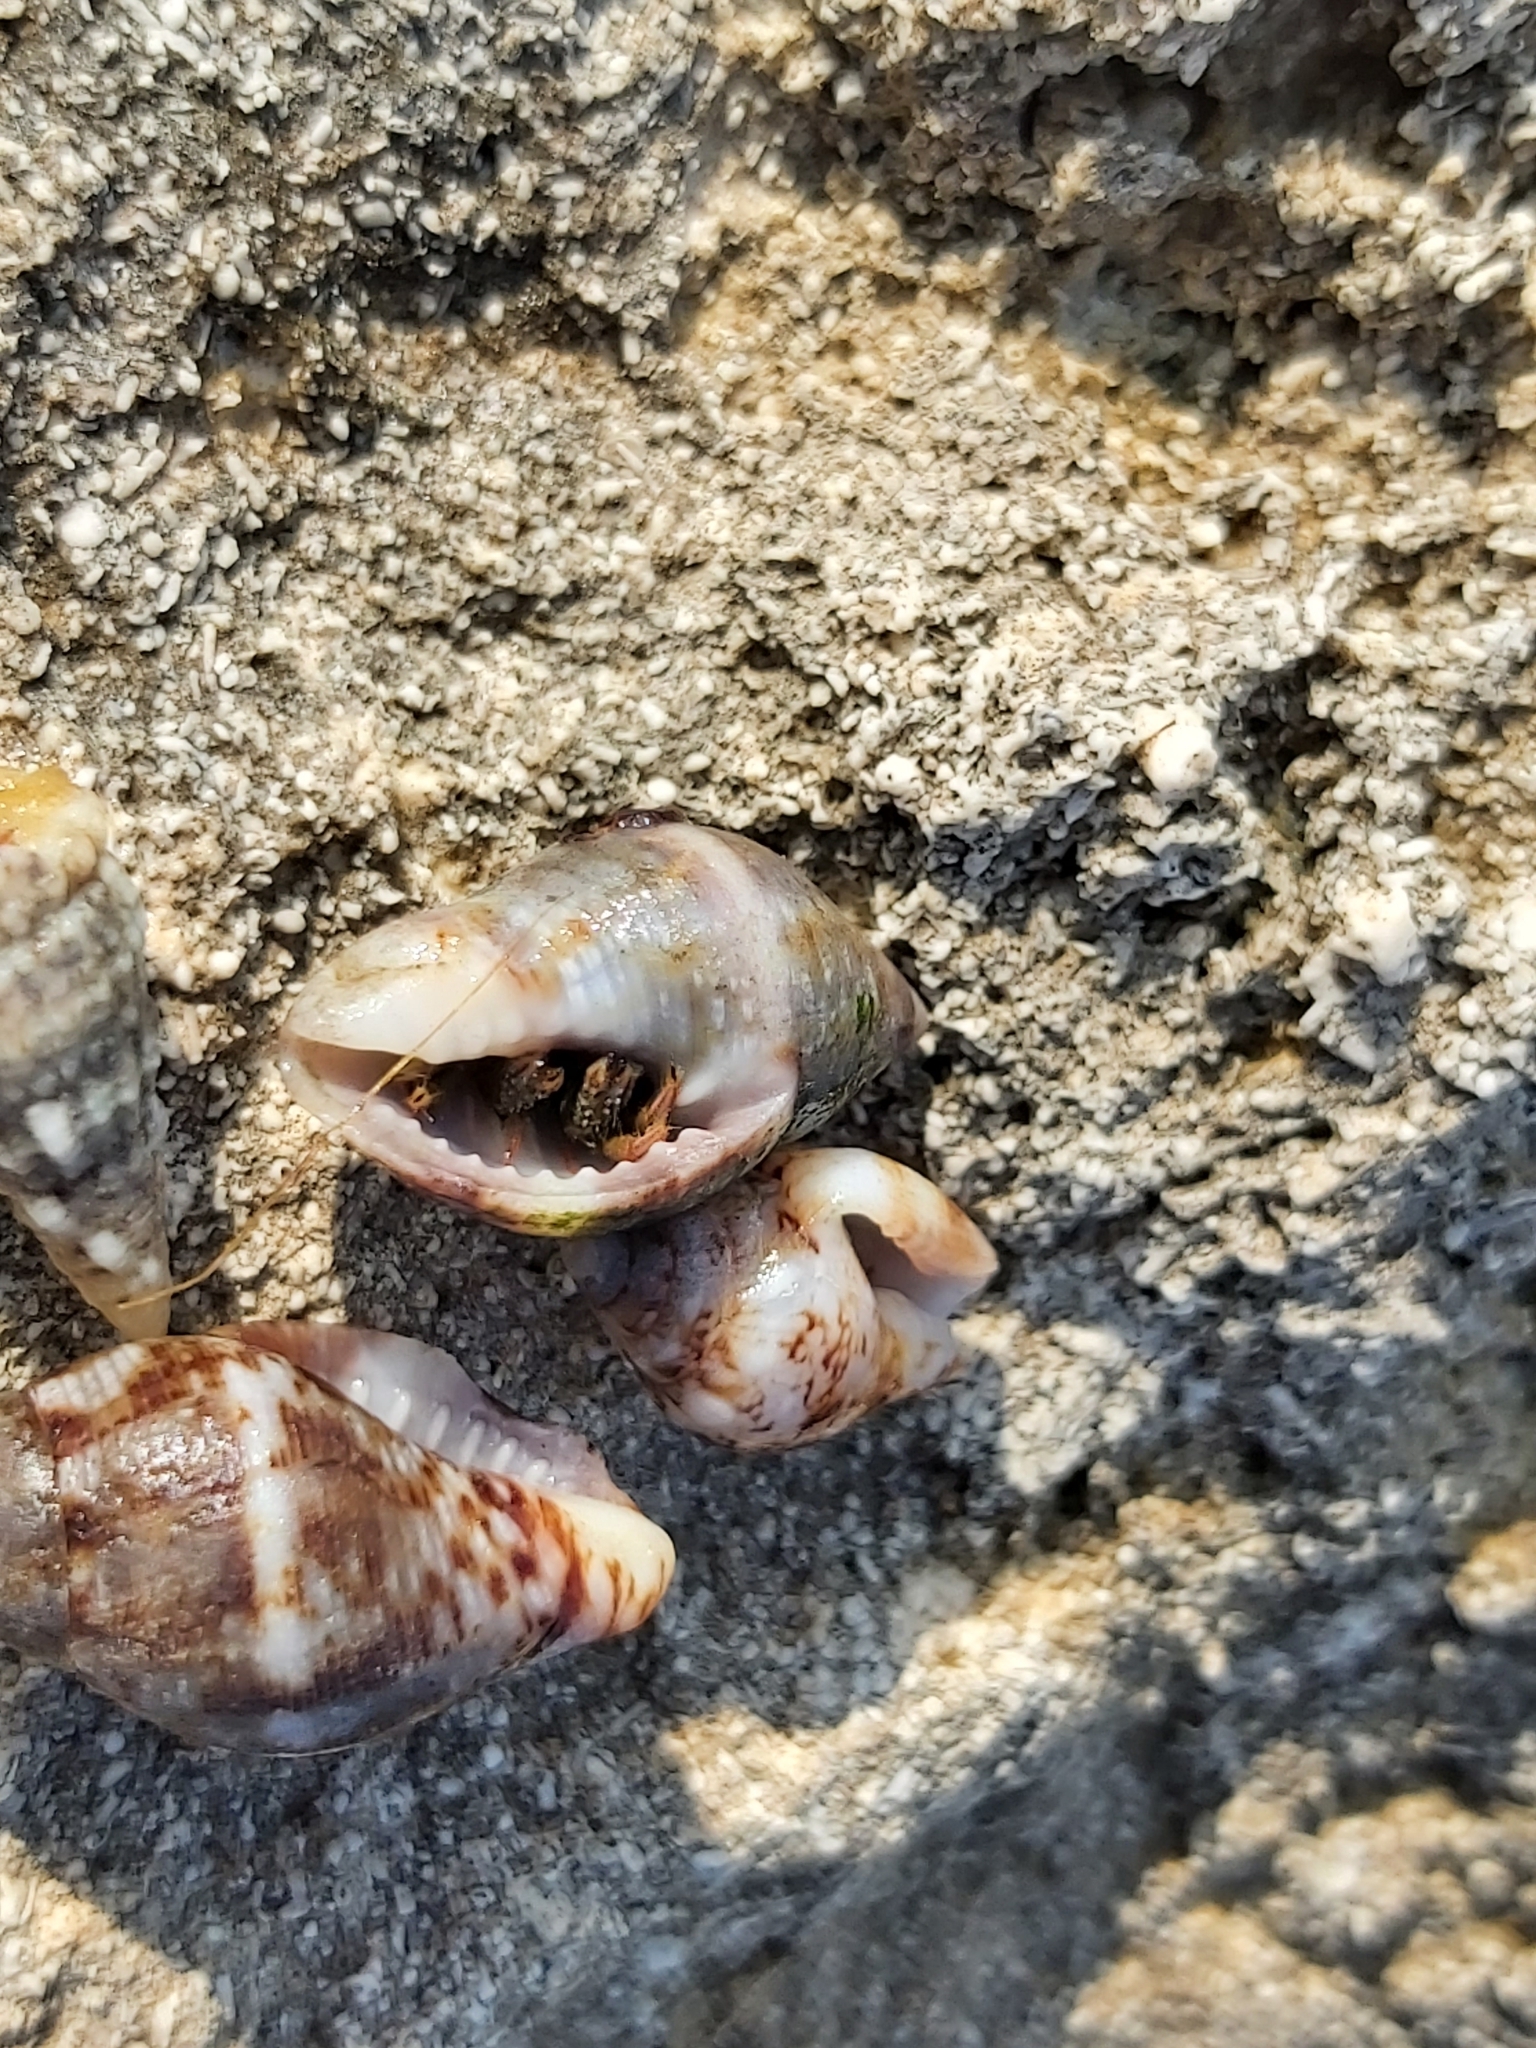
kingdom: Animalia
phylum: Arthropoda
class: Malacostraca
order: Decapoda
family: Diogenidae
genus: Clibanarius
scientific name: Clibanarius erythropus
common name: Hermit crab
